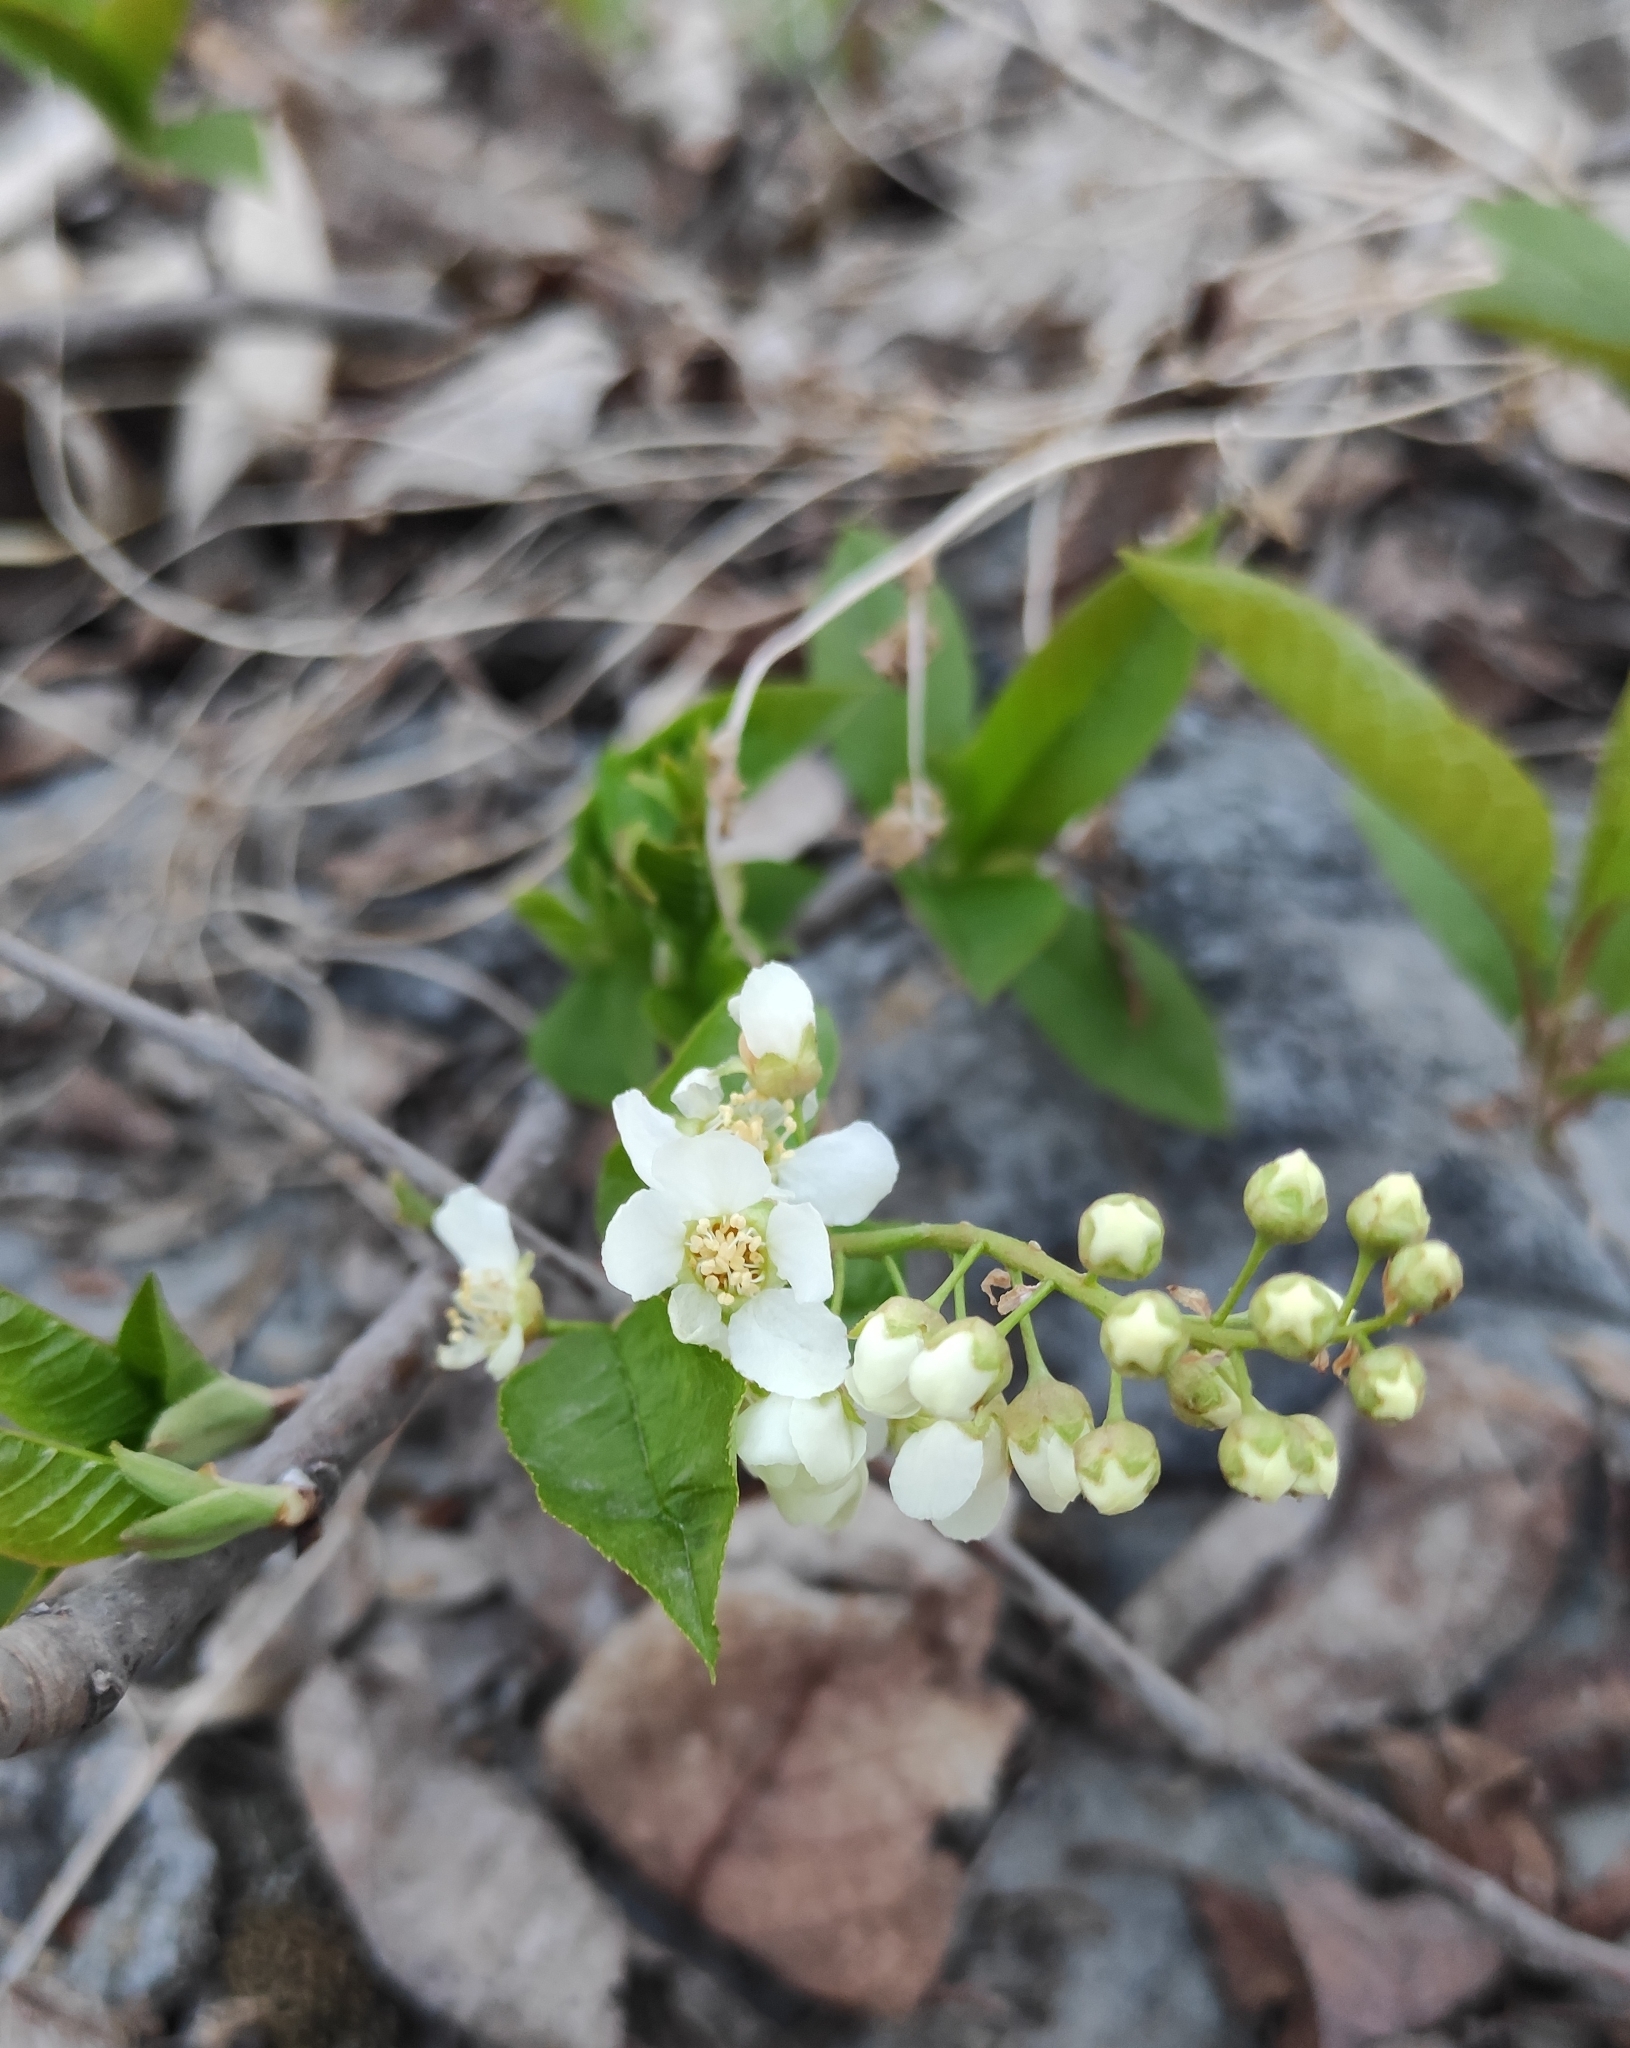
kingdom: Plantae
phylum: Tracheophyta
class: Magnoliopsida
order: Rosales
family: Rosaceae
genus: Prunus
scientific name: Prunus padus
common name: Bird cherry
